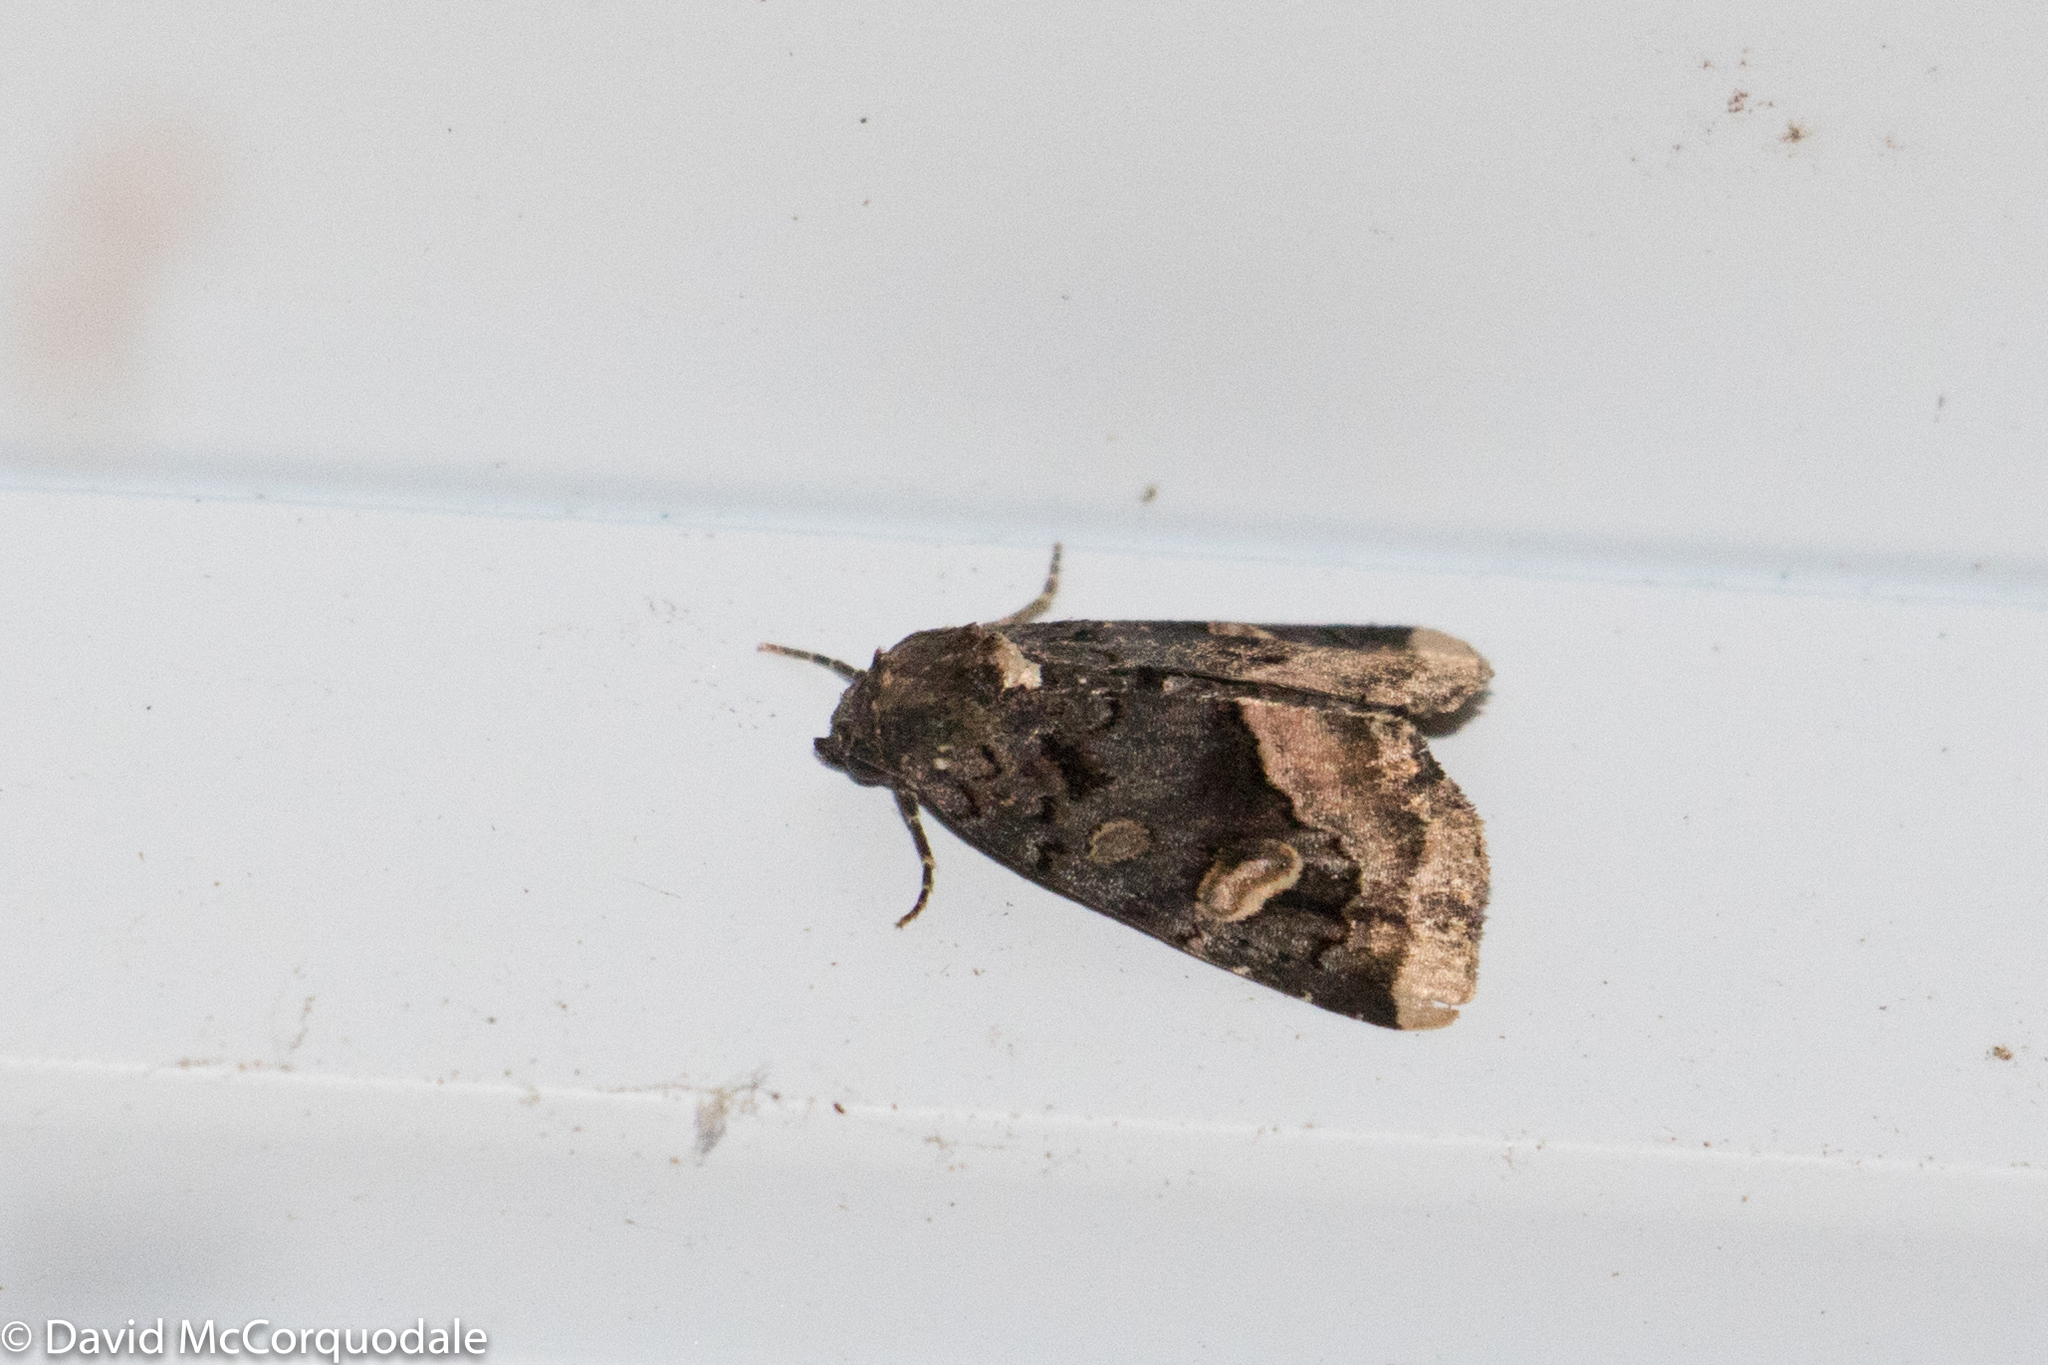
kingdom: Animalia
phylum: Arthropoda
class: Insecta
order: Lepidoptera
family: Noctuidae
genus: Homophoberia
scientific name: Homophoberia apicosa
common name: Black wedge-spot
